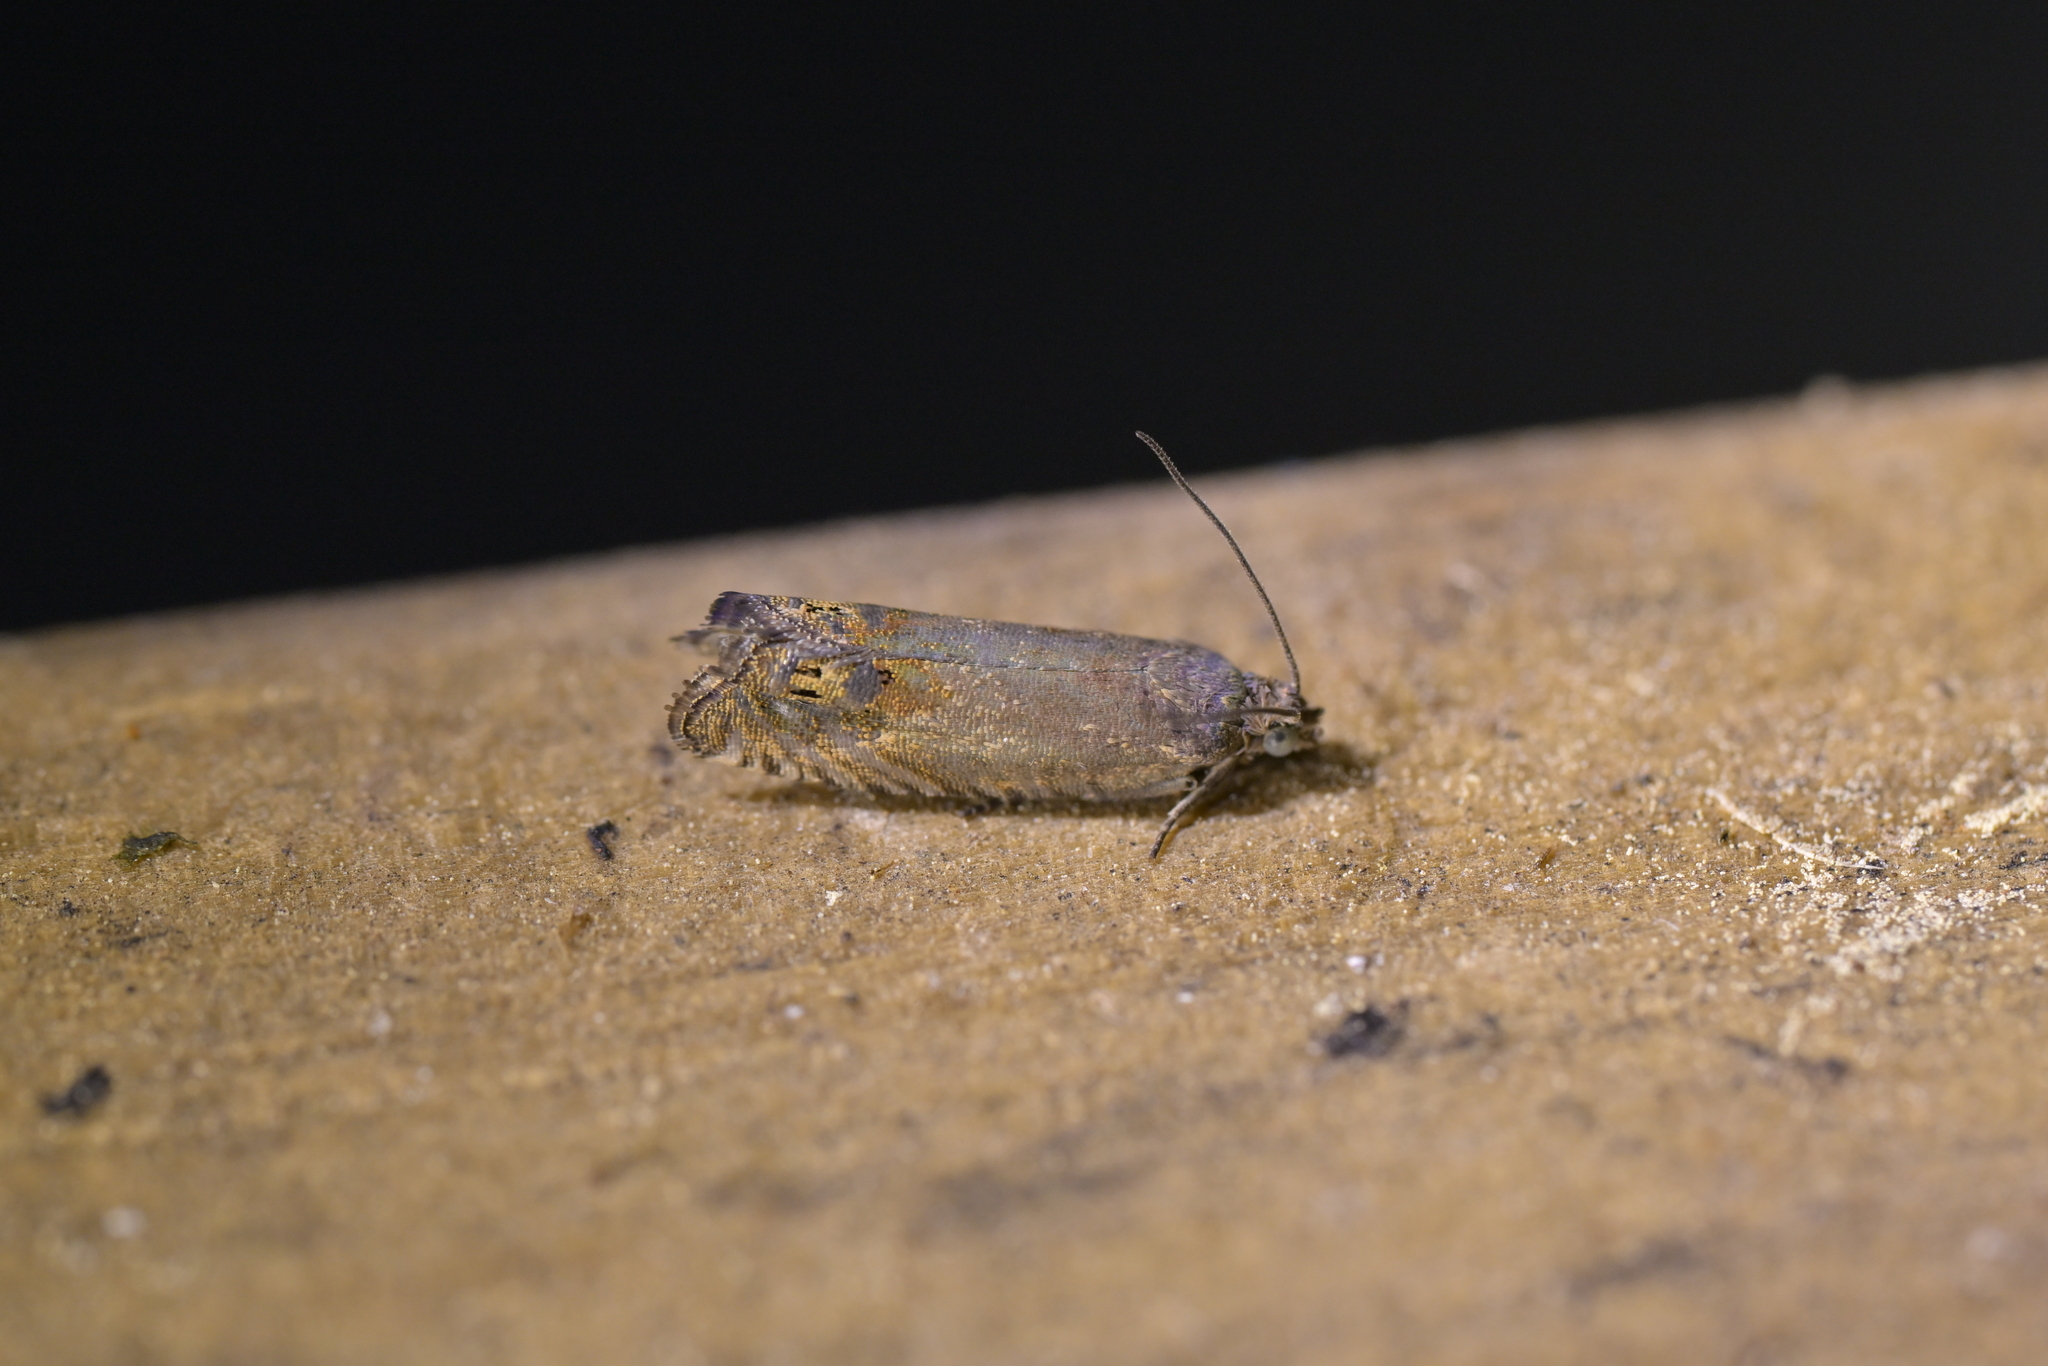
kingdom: Animalia
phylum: Arthropoda
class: Insecta
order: Lepidoptera
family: Tortricidae
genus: Cydia
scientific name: Cydia succedana
